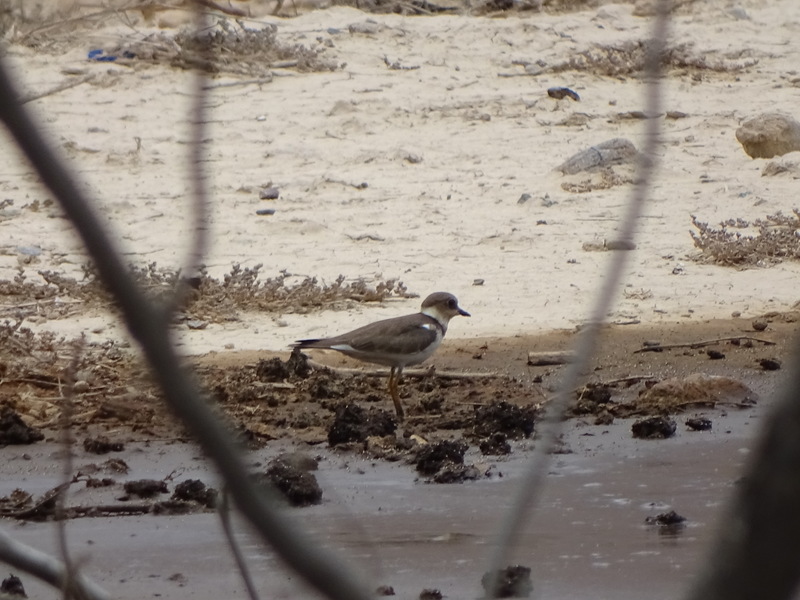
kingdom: Animalia
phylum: Chordata
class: Aves
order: Charadriiformes
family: Charadriidae
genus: Charadrius
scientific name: Charadrius dubius
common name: Little ringed plover
